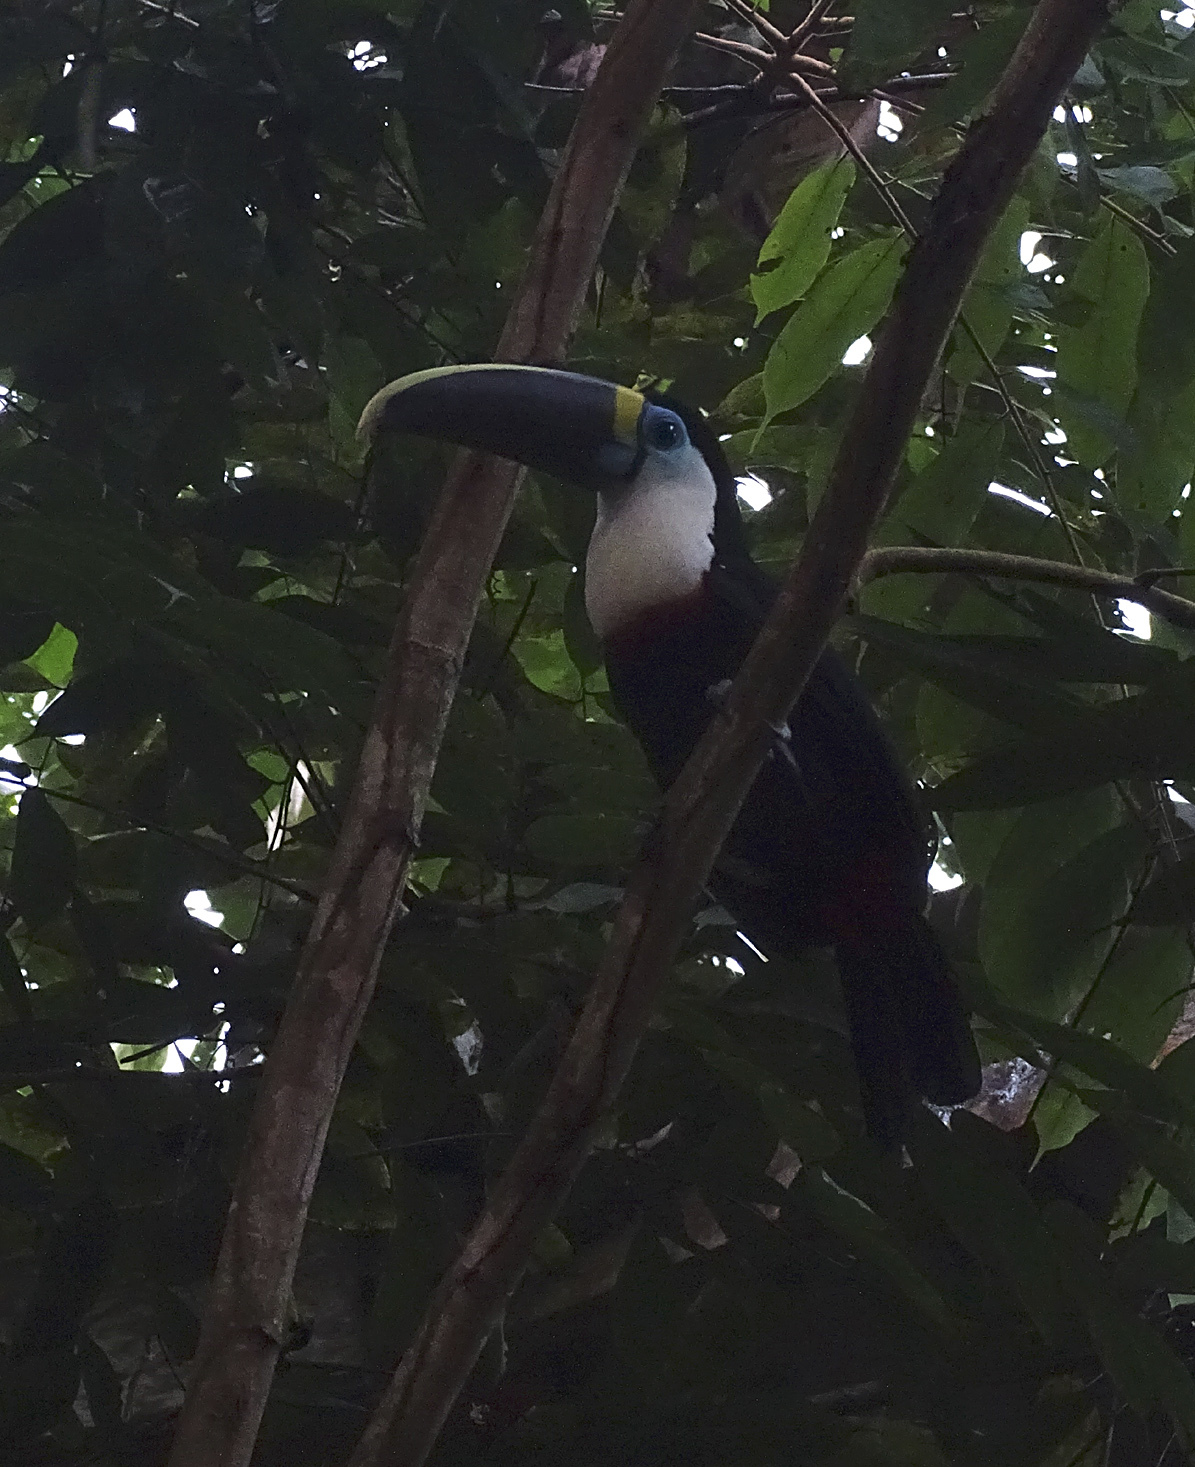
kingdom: Animalia
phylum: Chordata
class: Aves
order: Piciformes
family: Ramphastidae
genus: Ramphastos
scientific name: Ramphastos tucanus
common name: White-throated toucan
